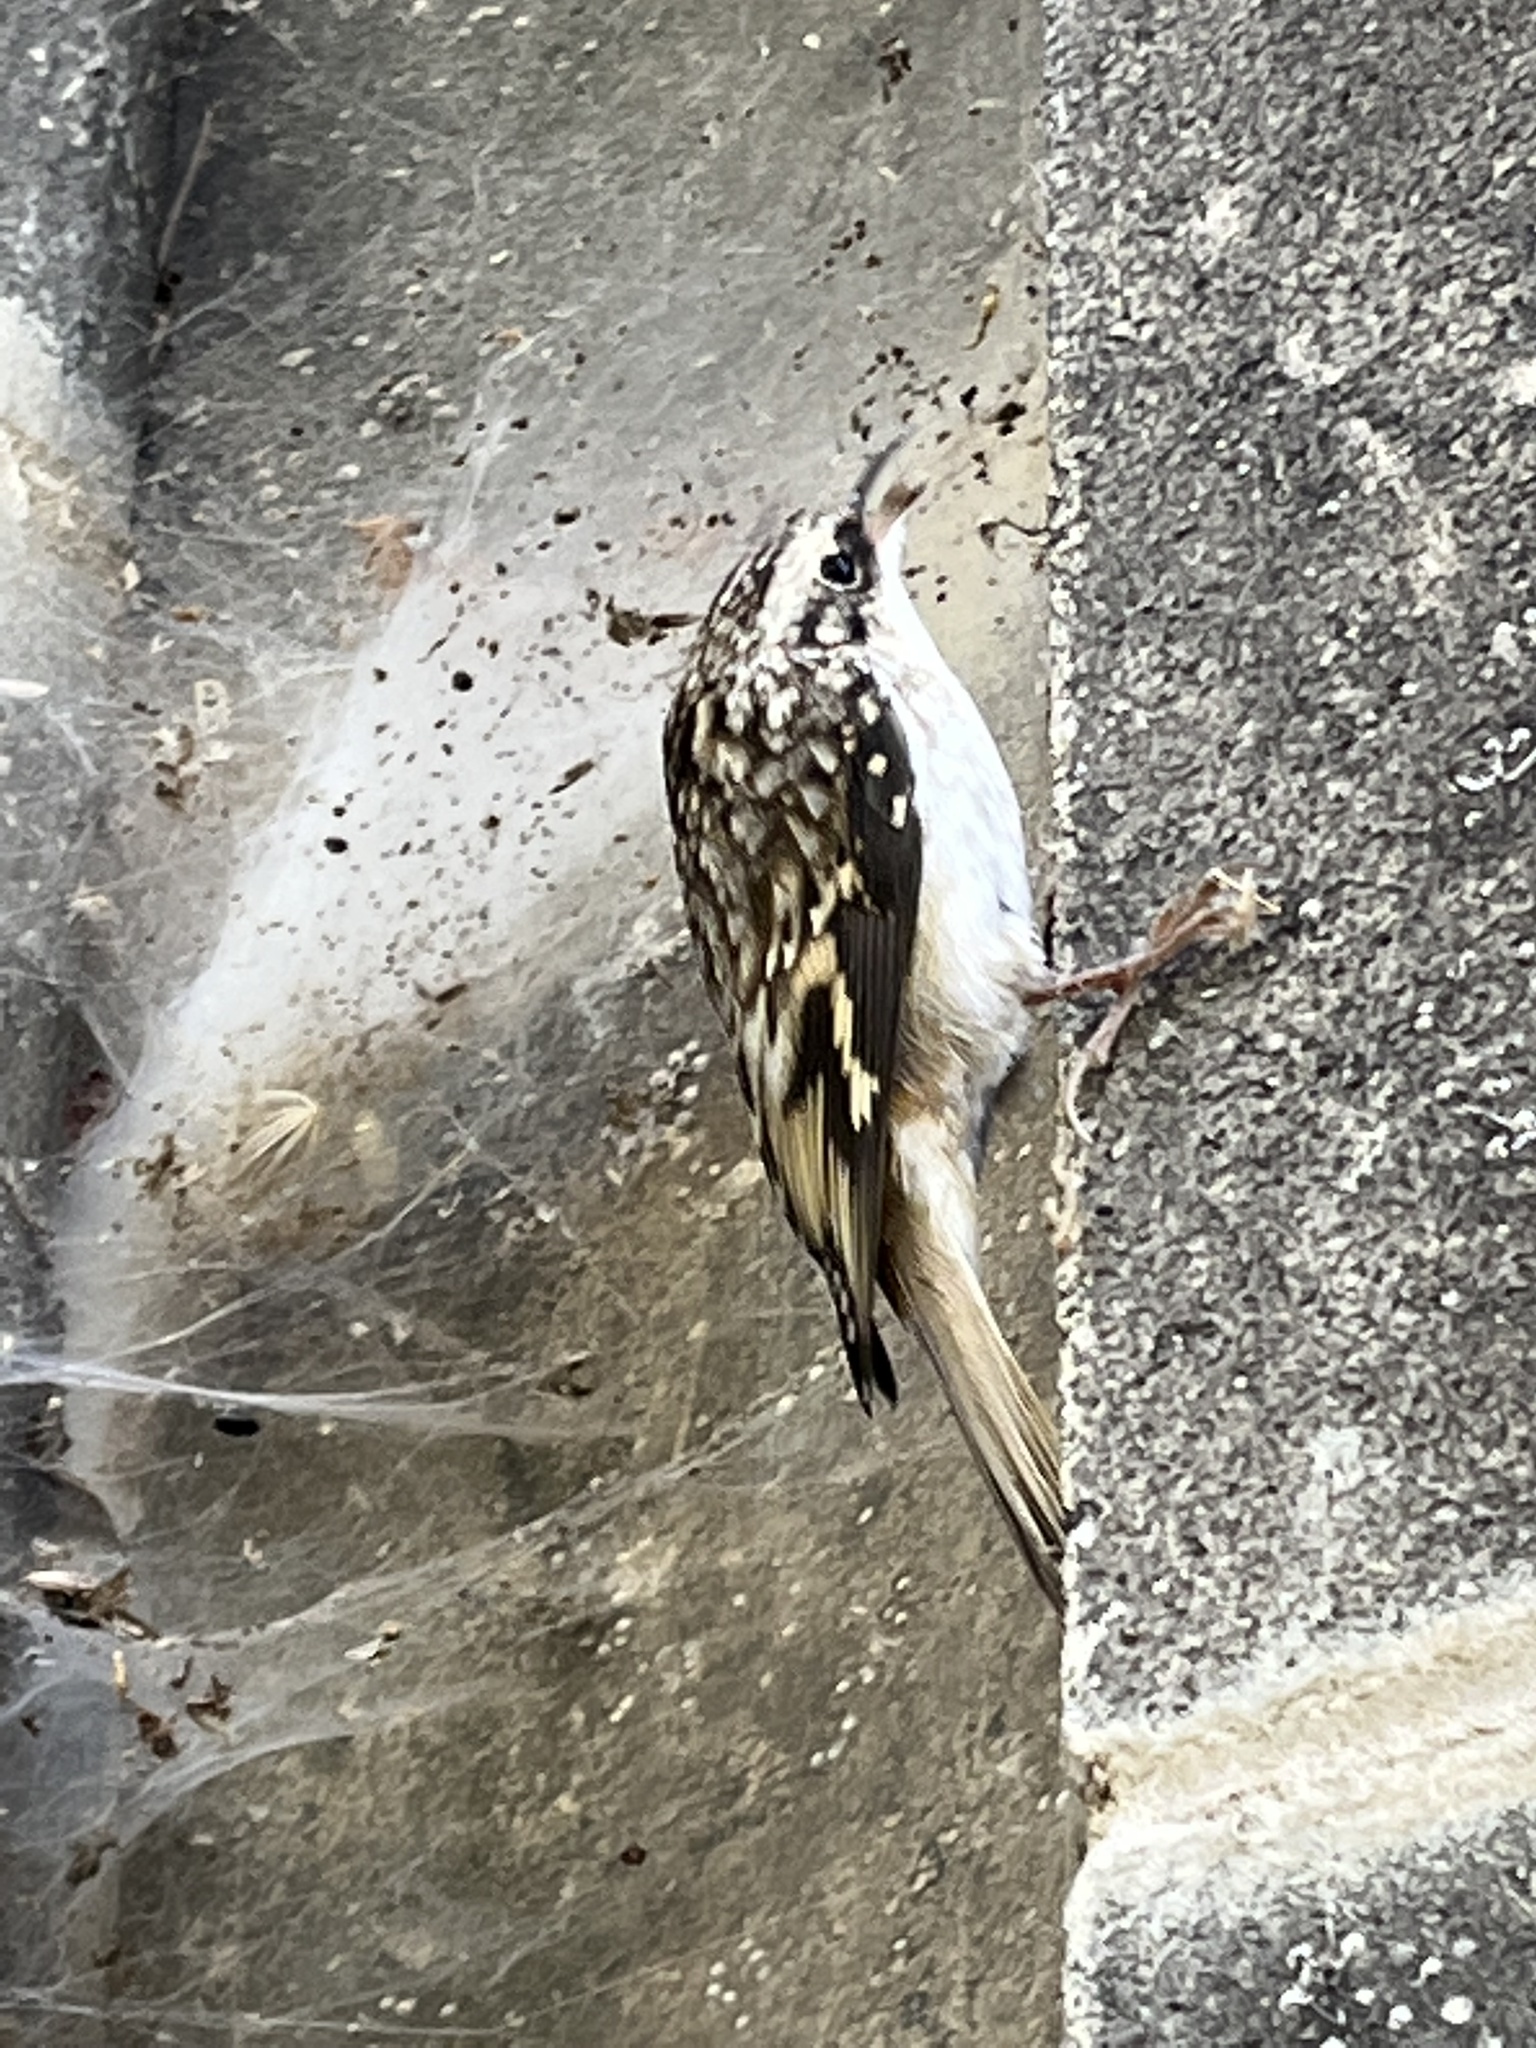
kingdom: Animalia
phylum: Chordata
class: Aves
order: Passeriformes
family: Certhiidae
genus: Certhia
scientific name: Certhia americana
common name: Brown creeper
